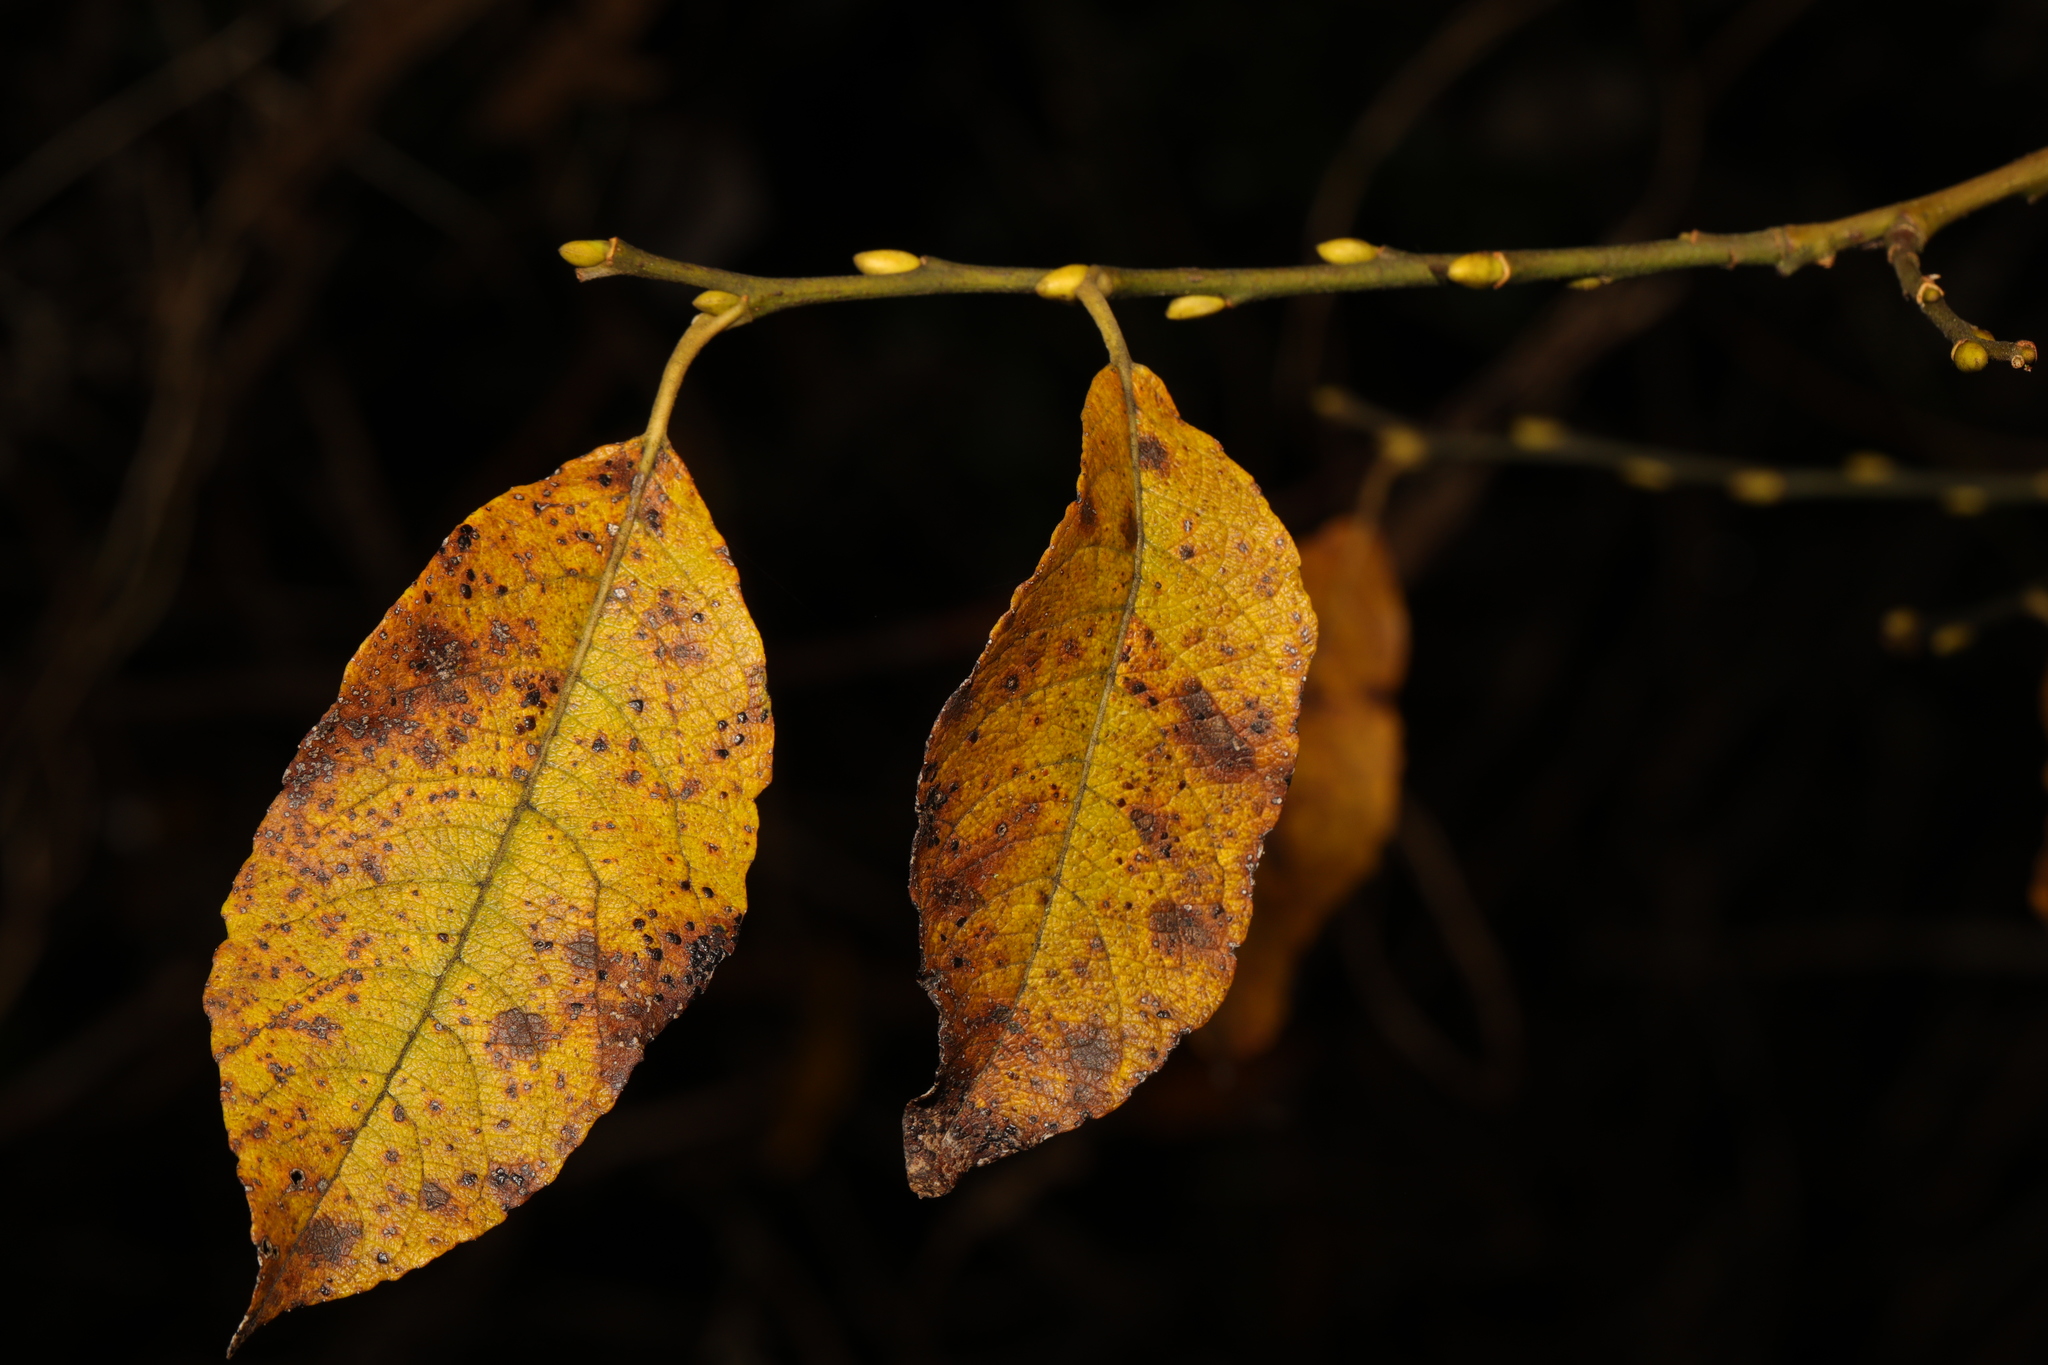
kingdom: Plantae
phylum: Tracheophyta
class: Magnoliopsida
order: Malpighiales
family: Salicaceae
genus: Salix
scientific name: Salix caprea
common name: Goat willow
